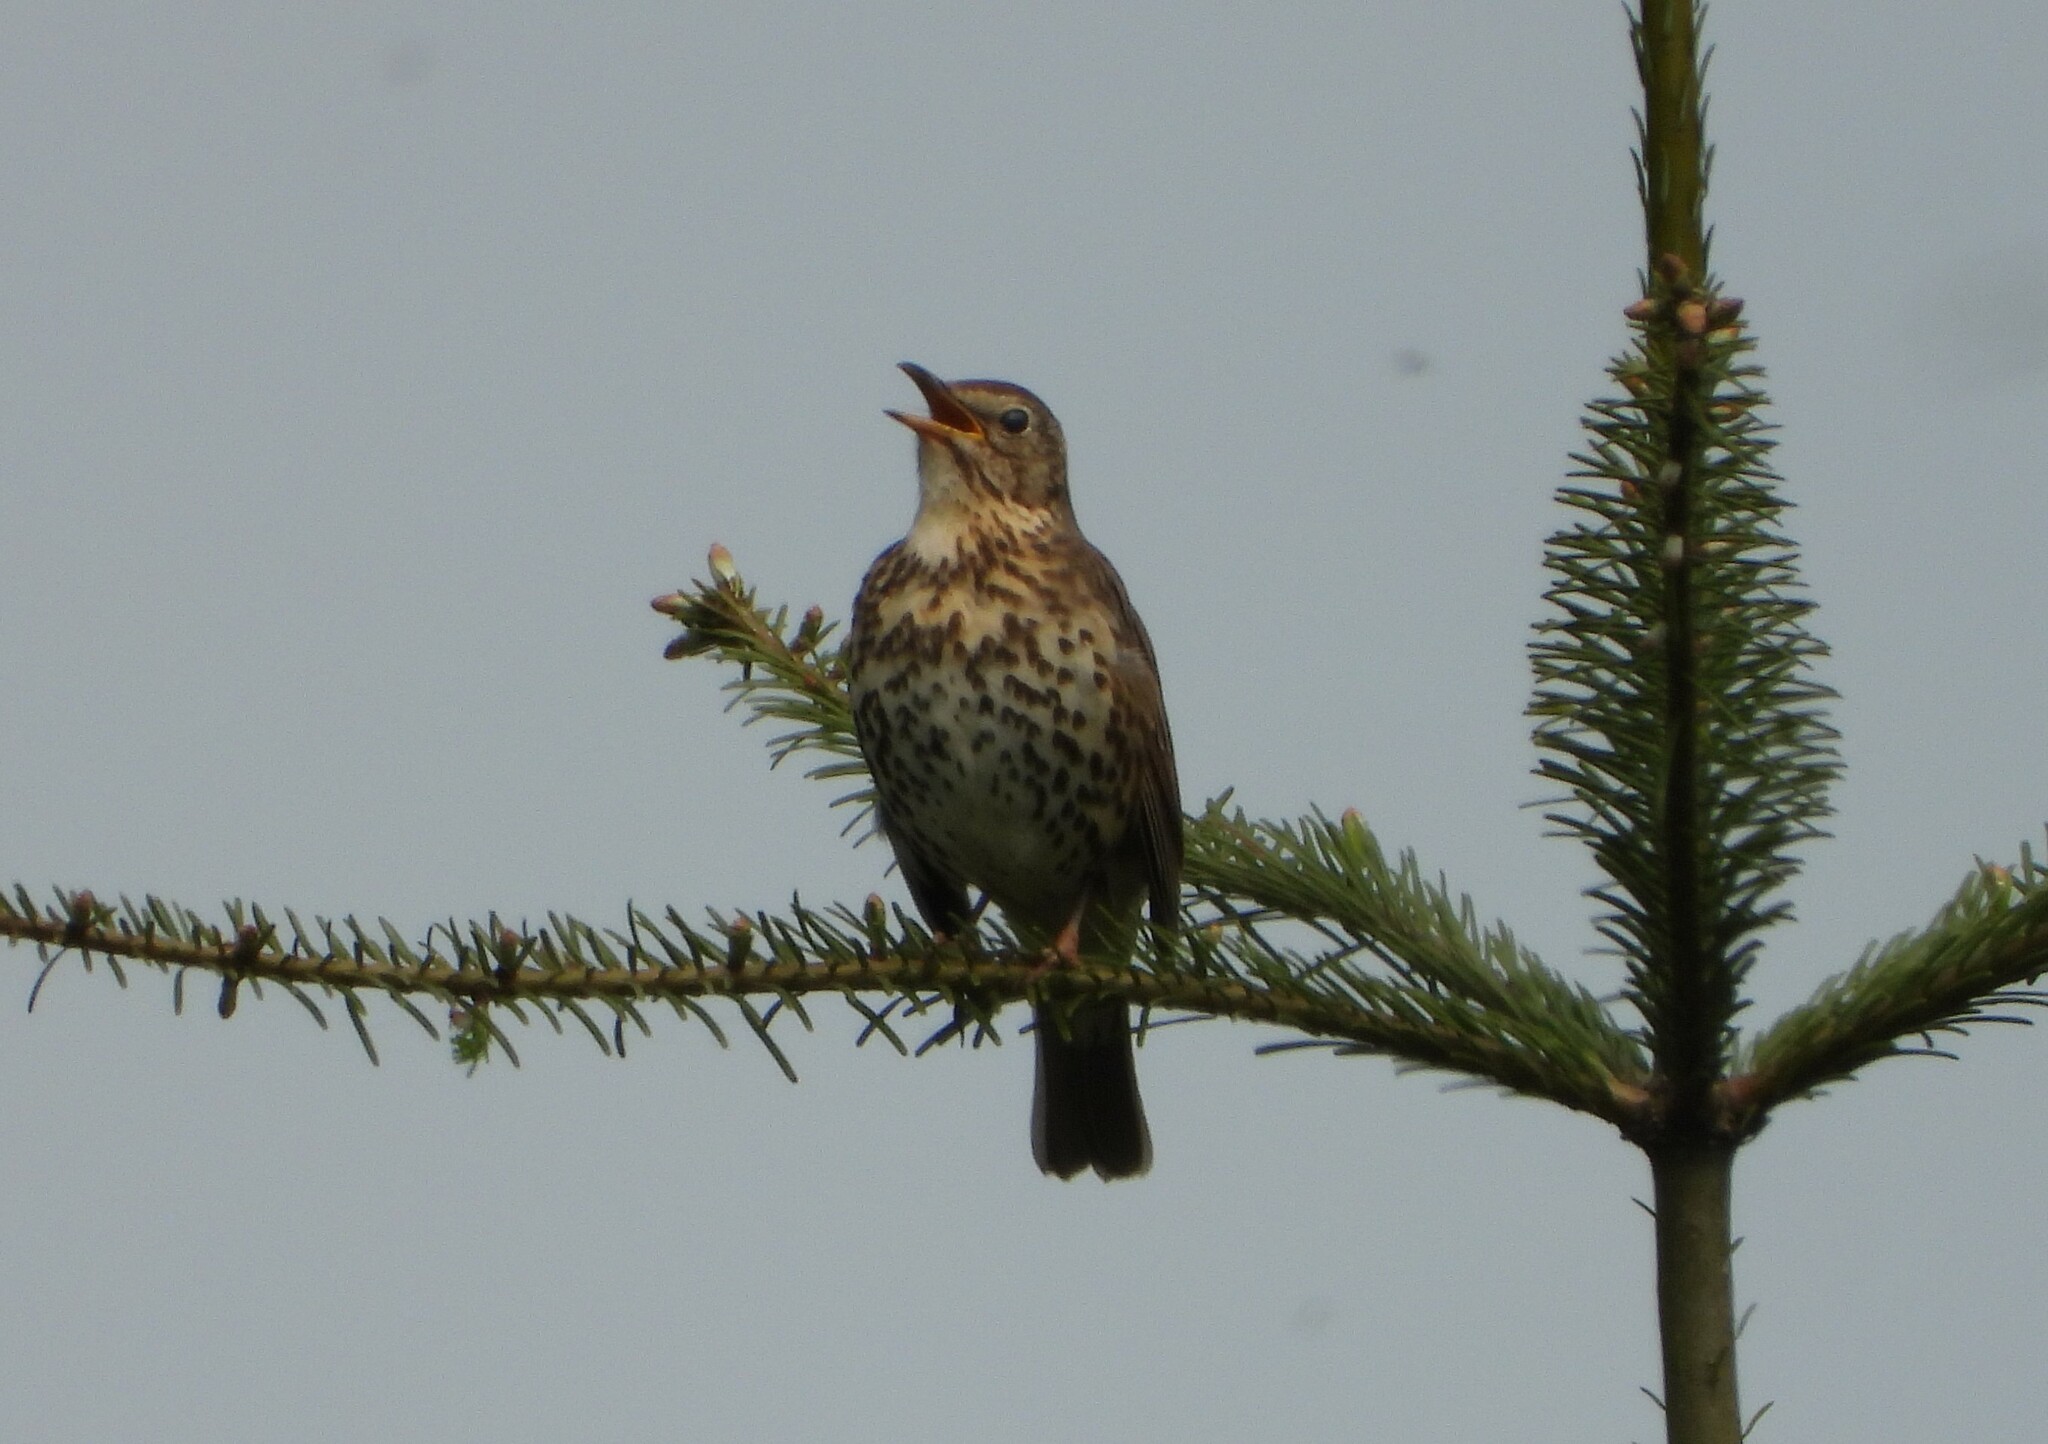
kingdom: Animalia
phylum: Chordata
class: Aves
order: Passeriformes
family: Turdidae
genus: Turdus
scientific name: Turdus philomelos
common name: Song thrush
